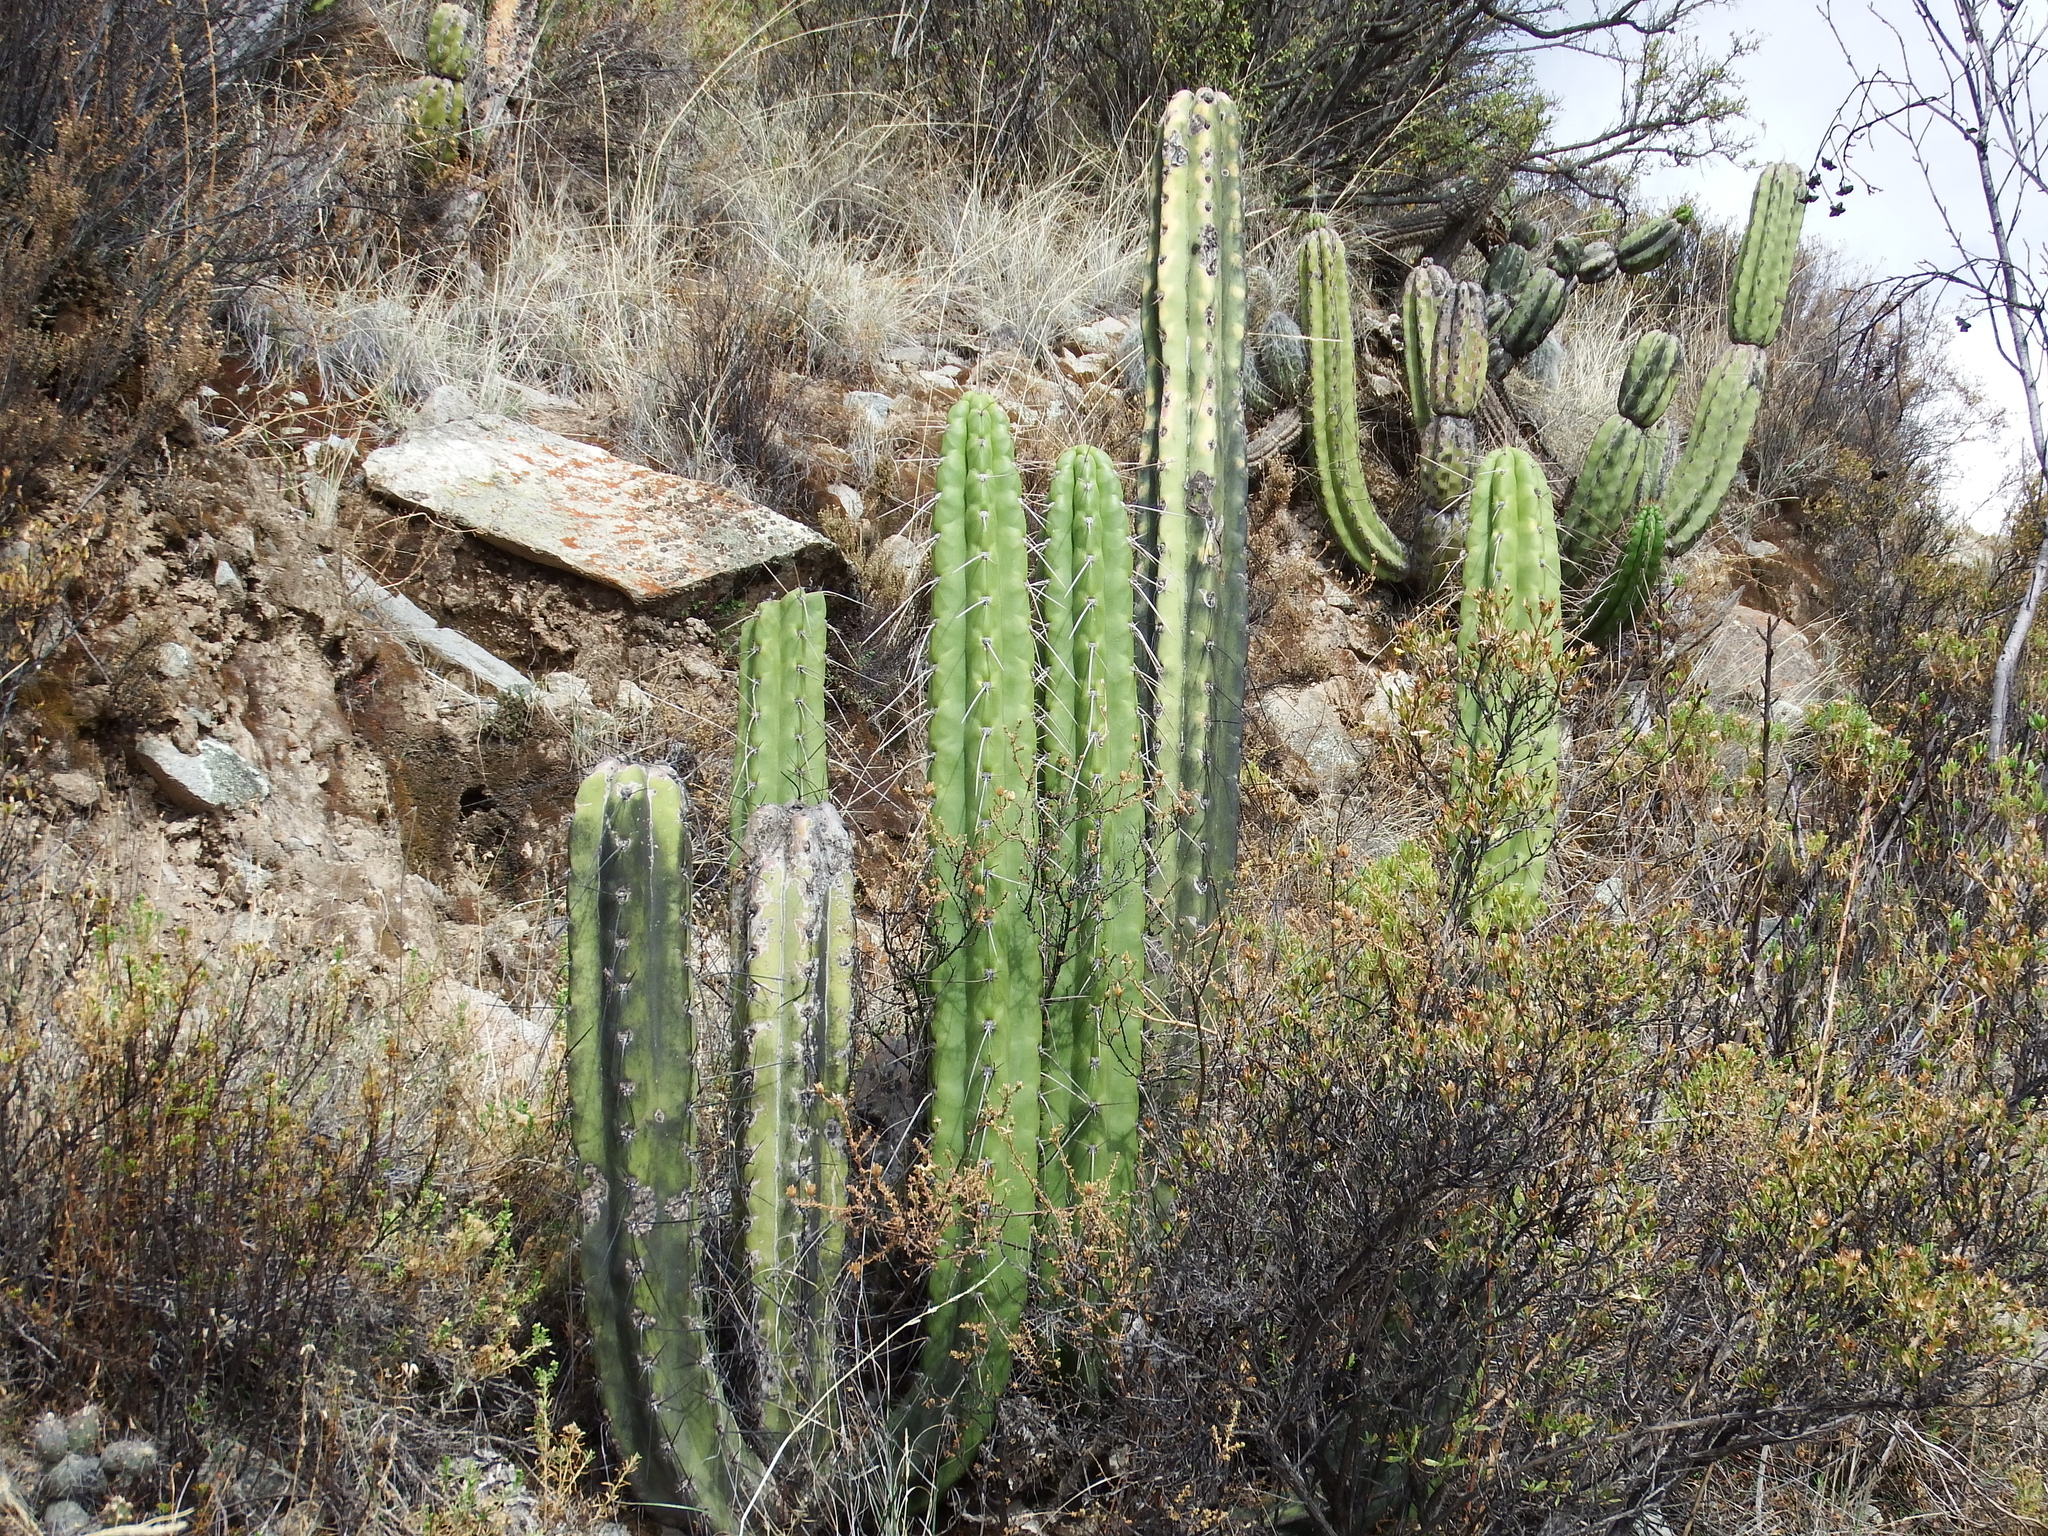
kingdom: Plantae
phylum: Tracheophyta
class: Magnoliopsida
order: Caryophyllales
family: Cactaceae
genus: Corryocactus
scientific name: Corryocactus brevistylus
